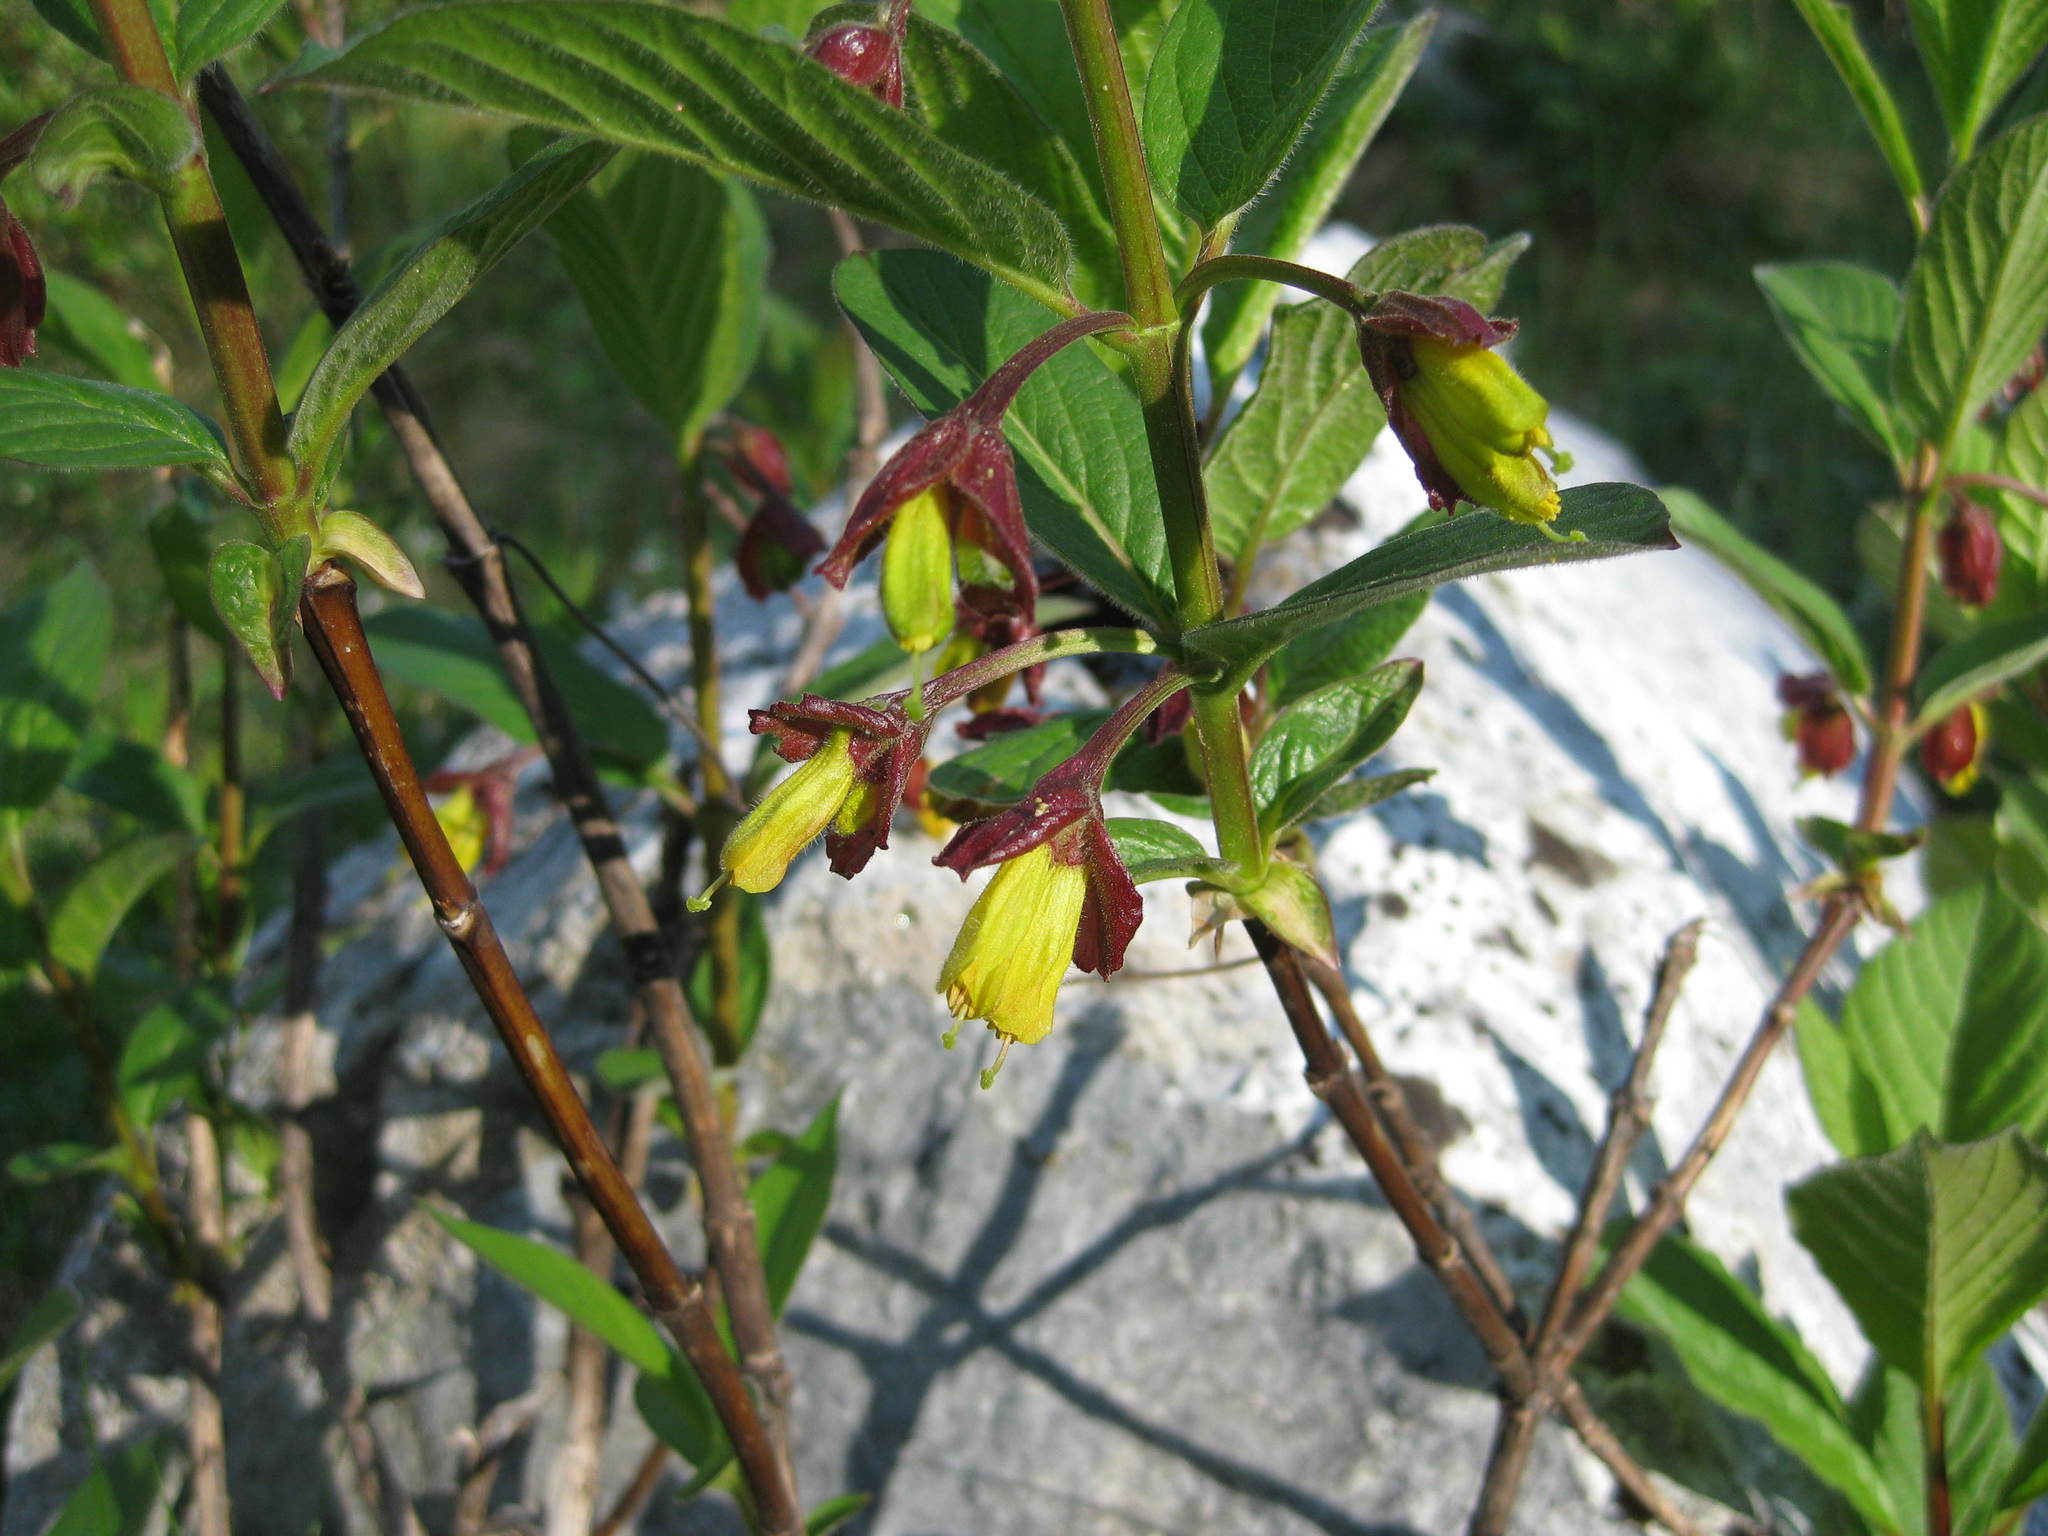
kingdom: Plantae
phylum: Tracheophyta
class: Magnoliopsida
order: Dipsacales
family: Caprifoliaceae
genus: Lonicera
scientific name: Lonicera involucrata
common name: Californian honeysuckle
